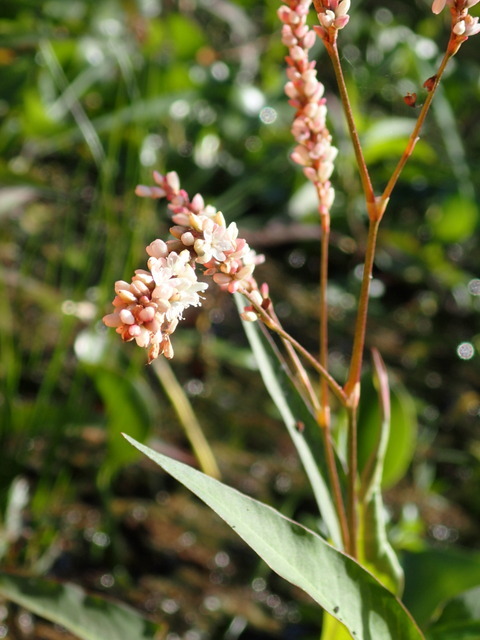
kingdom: Plantae
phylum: Tracheophyta
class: Magnoliopsida
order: Caryophyllales
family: Polygonaceae
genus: Persicaria
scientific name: Persicaria hydropiperoides
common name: Swamp smartweed
